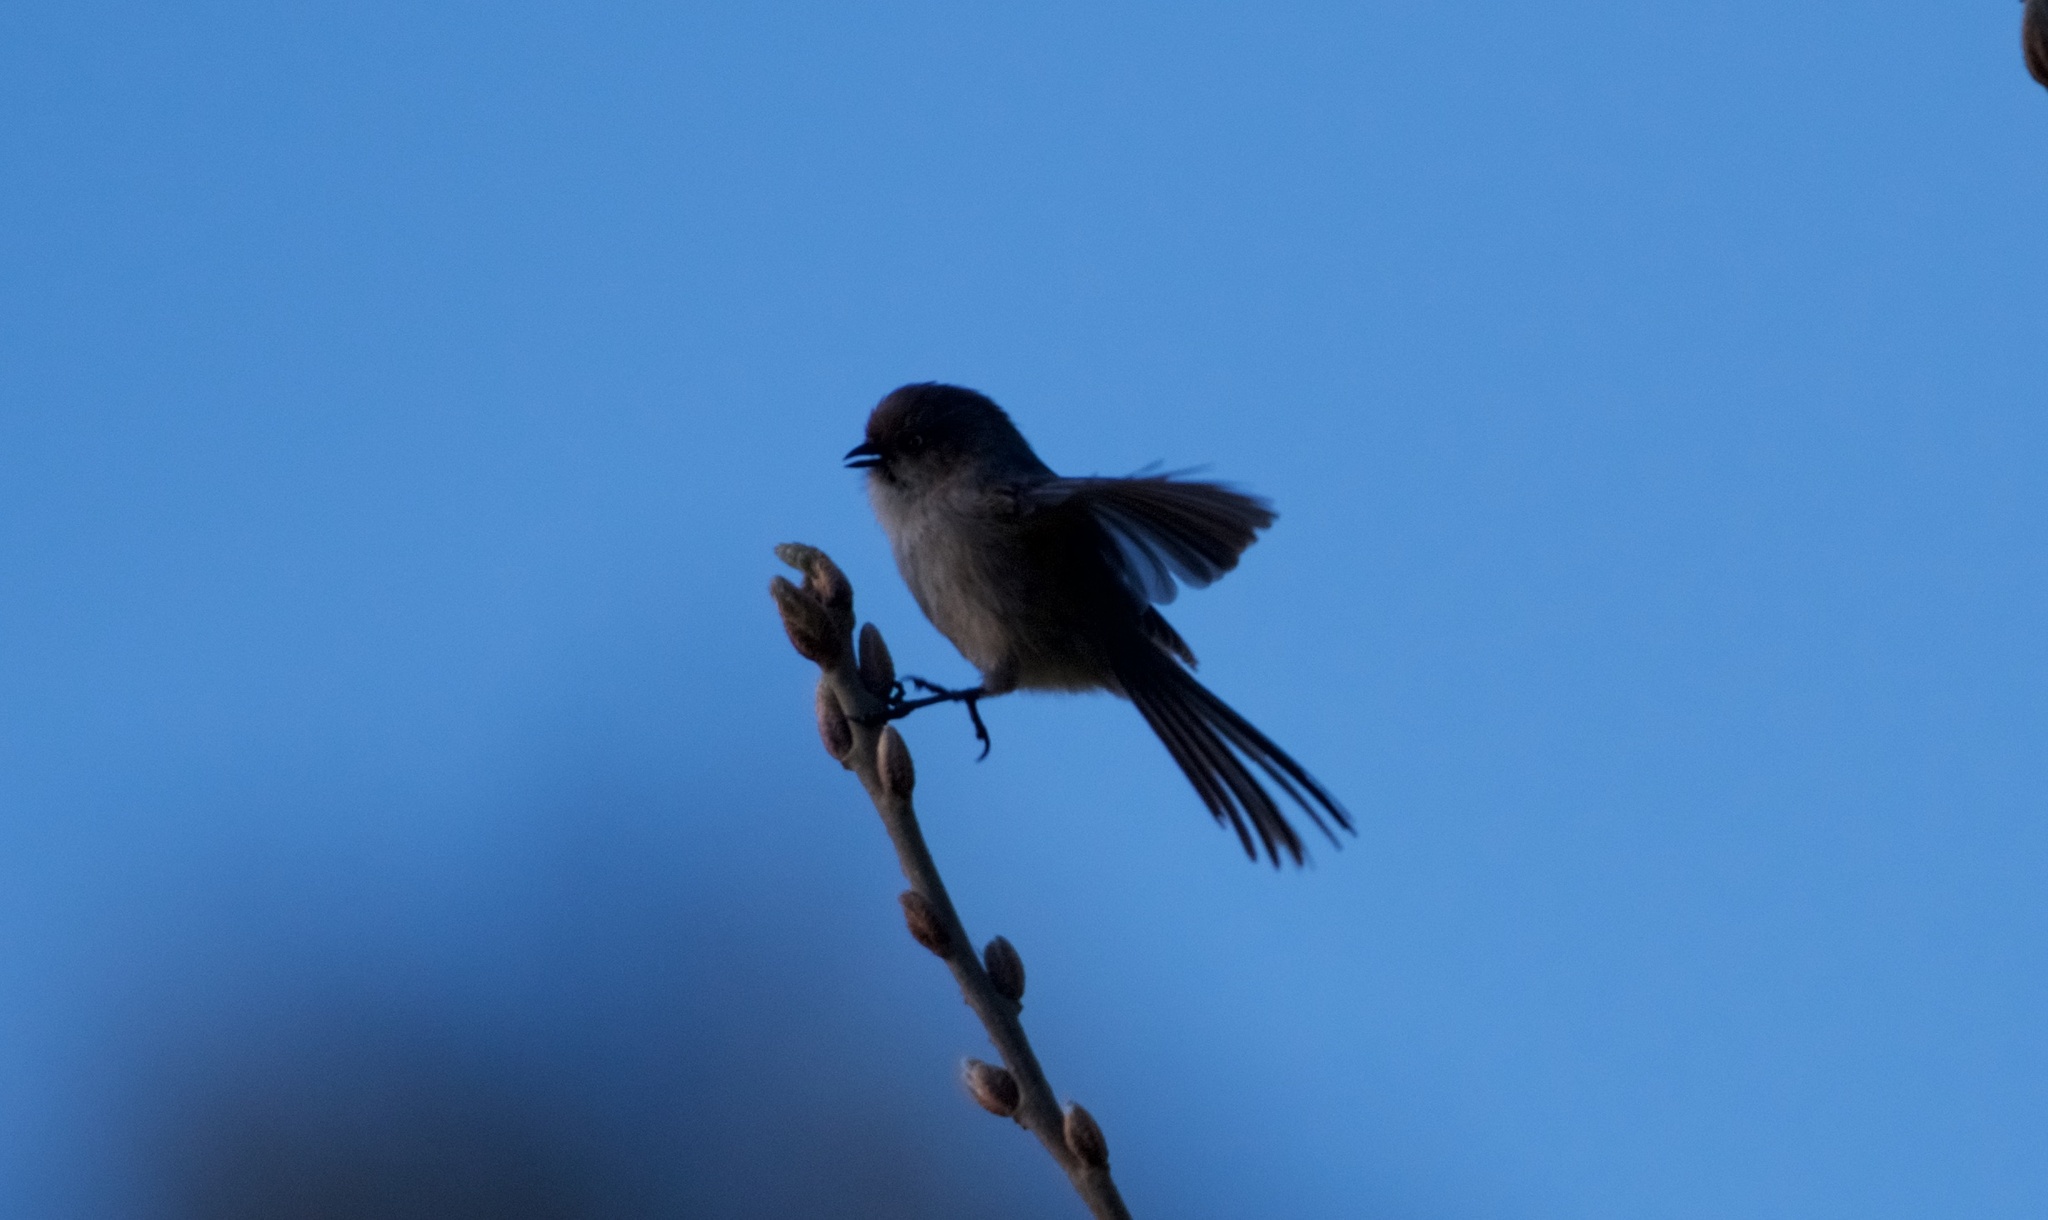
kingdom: Animalia
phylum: Chordata
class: Aves
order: Passeriformes
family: Aegithalidae
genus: Psaltriparus
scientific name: Psaltriparus minimus
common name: American bushtit
